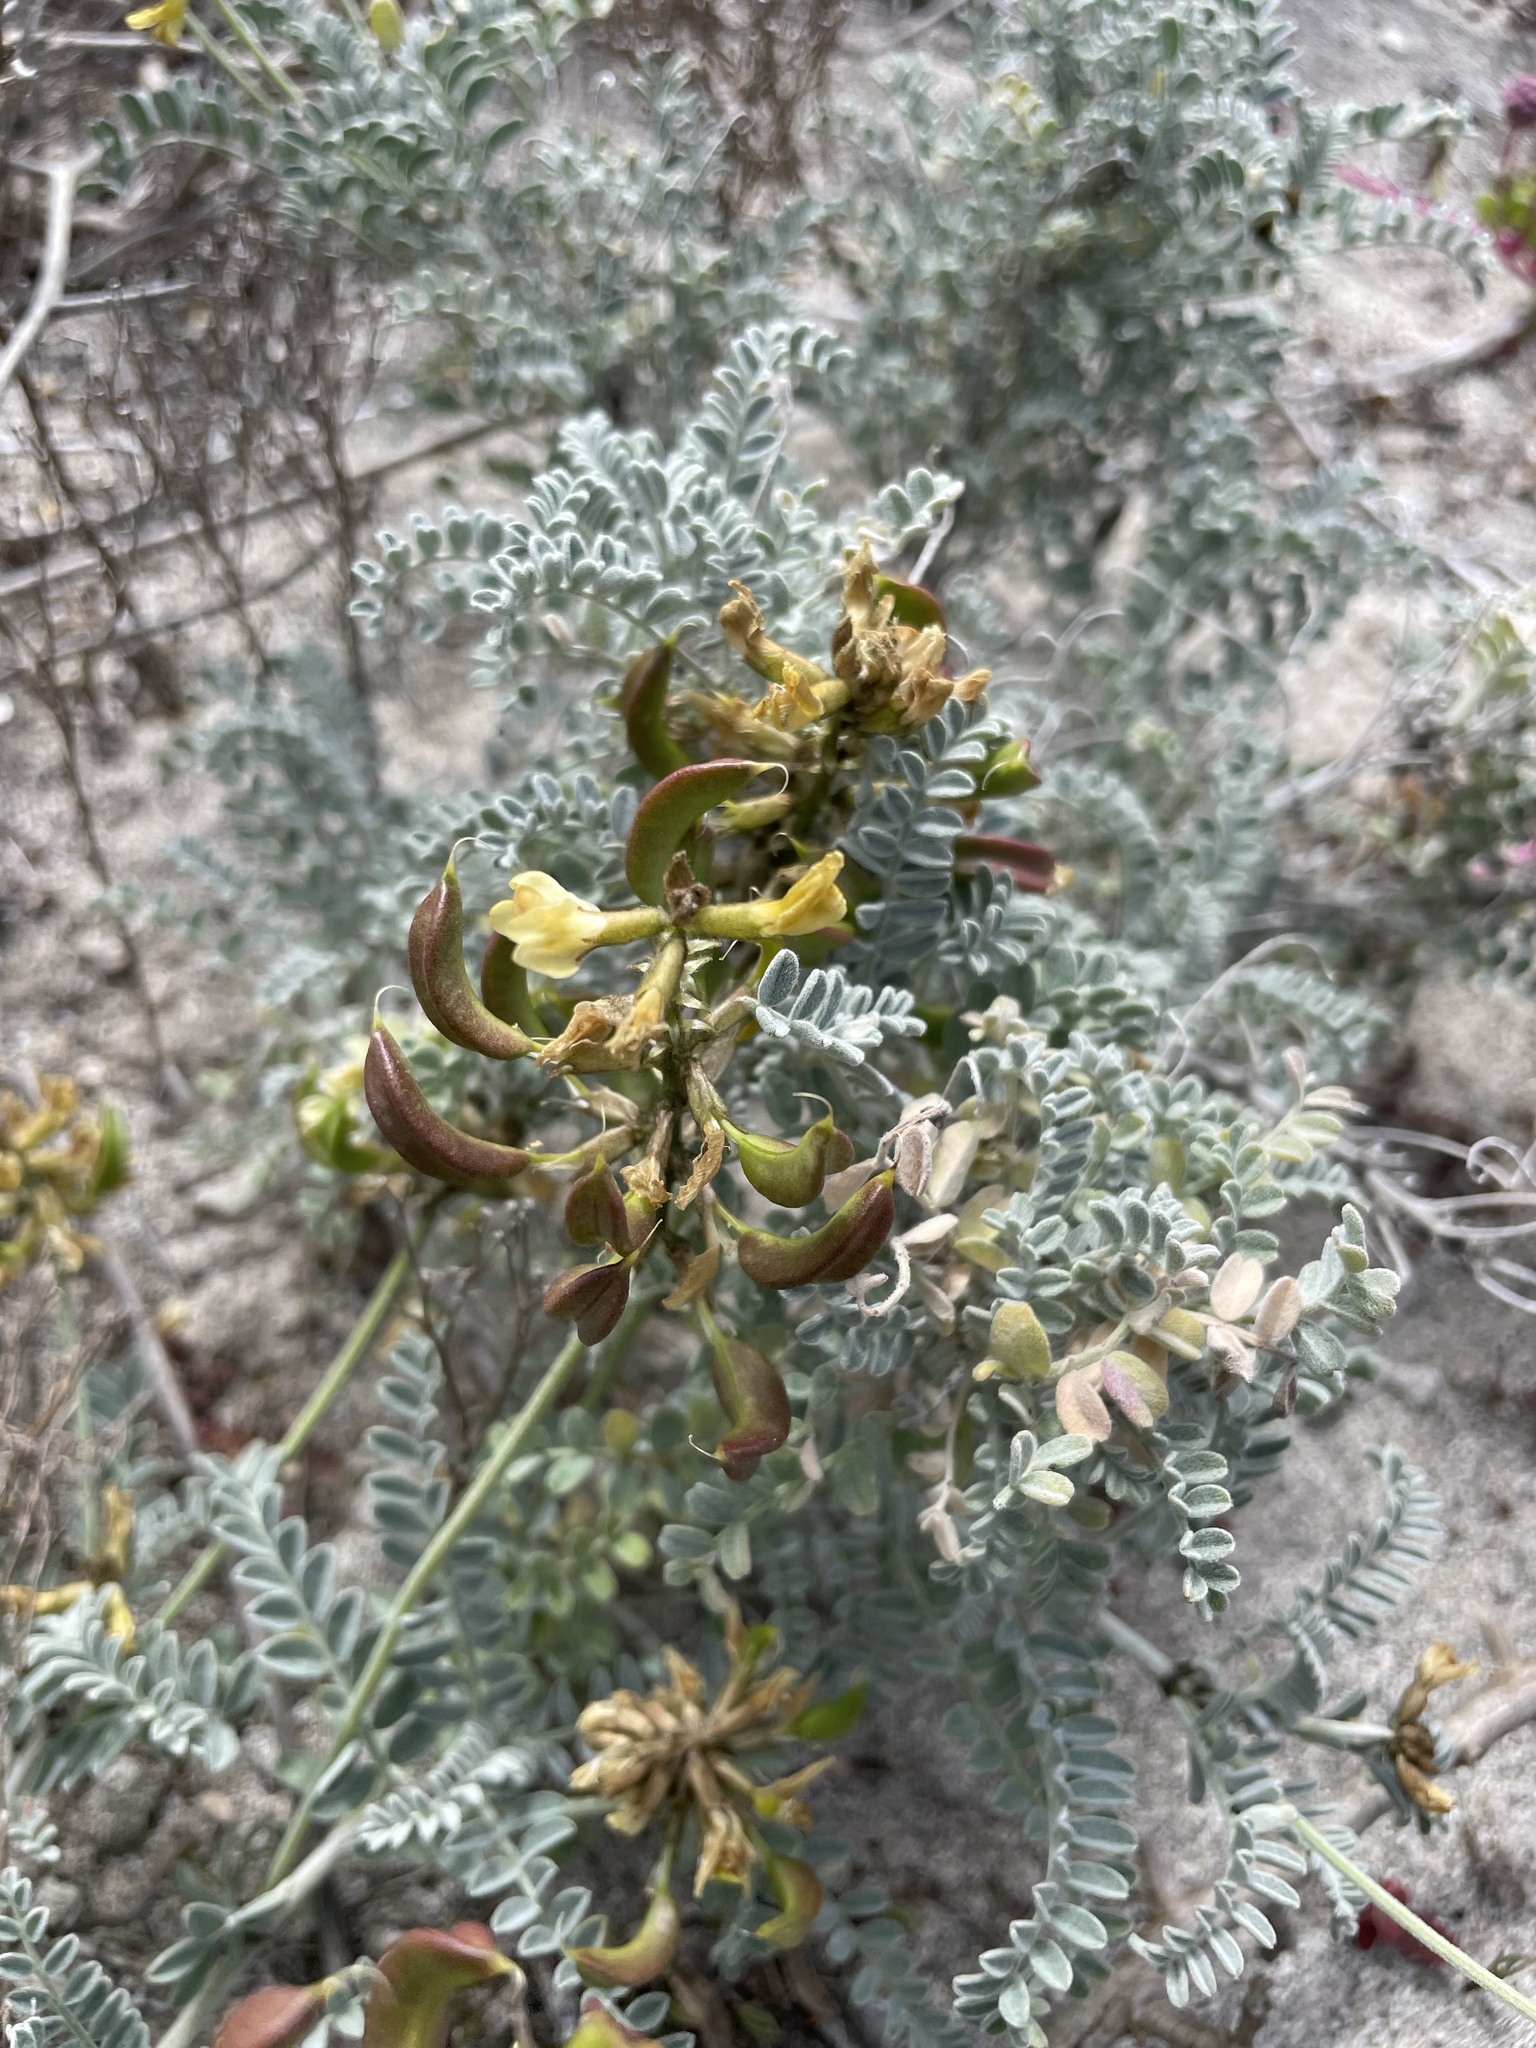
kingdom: Plantae
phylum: Tracheophyta
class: Magnoliopsida
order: Fabales
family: Fabaceae
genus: Astragalus
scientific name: Astragalus nevinii
